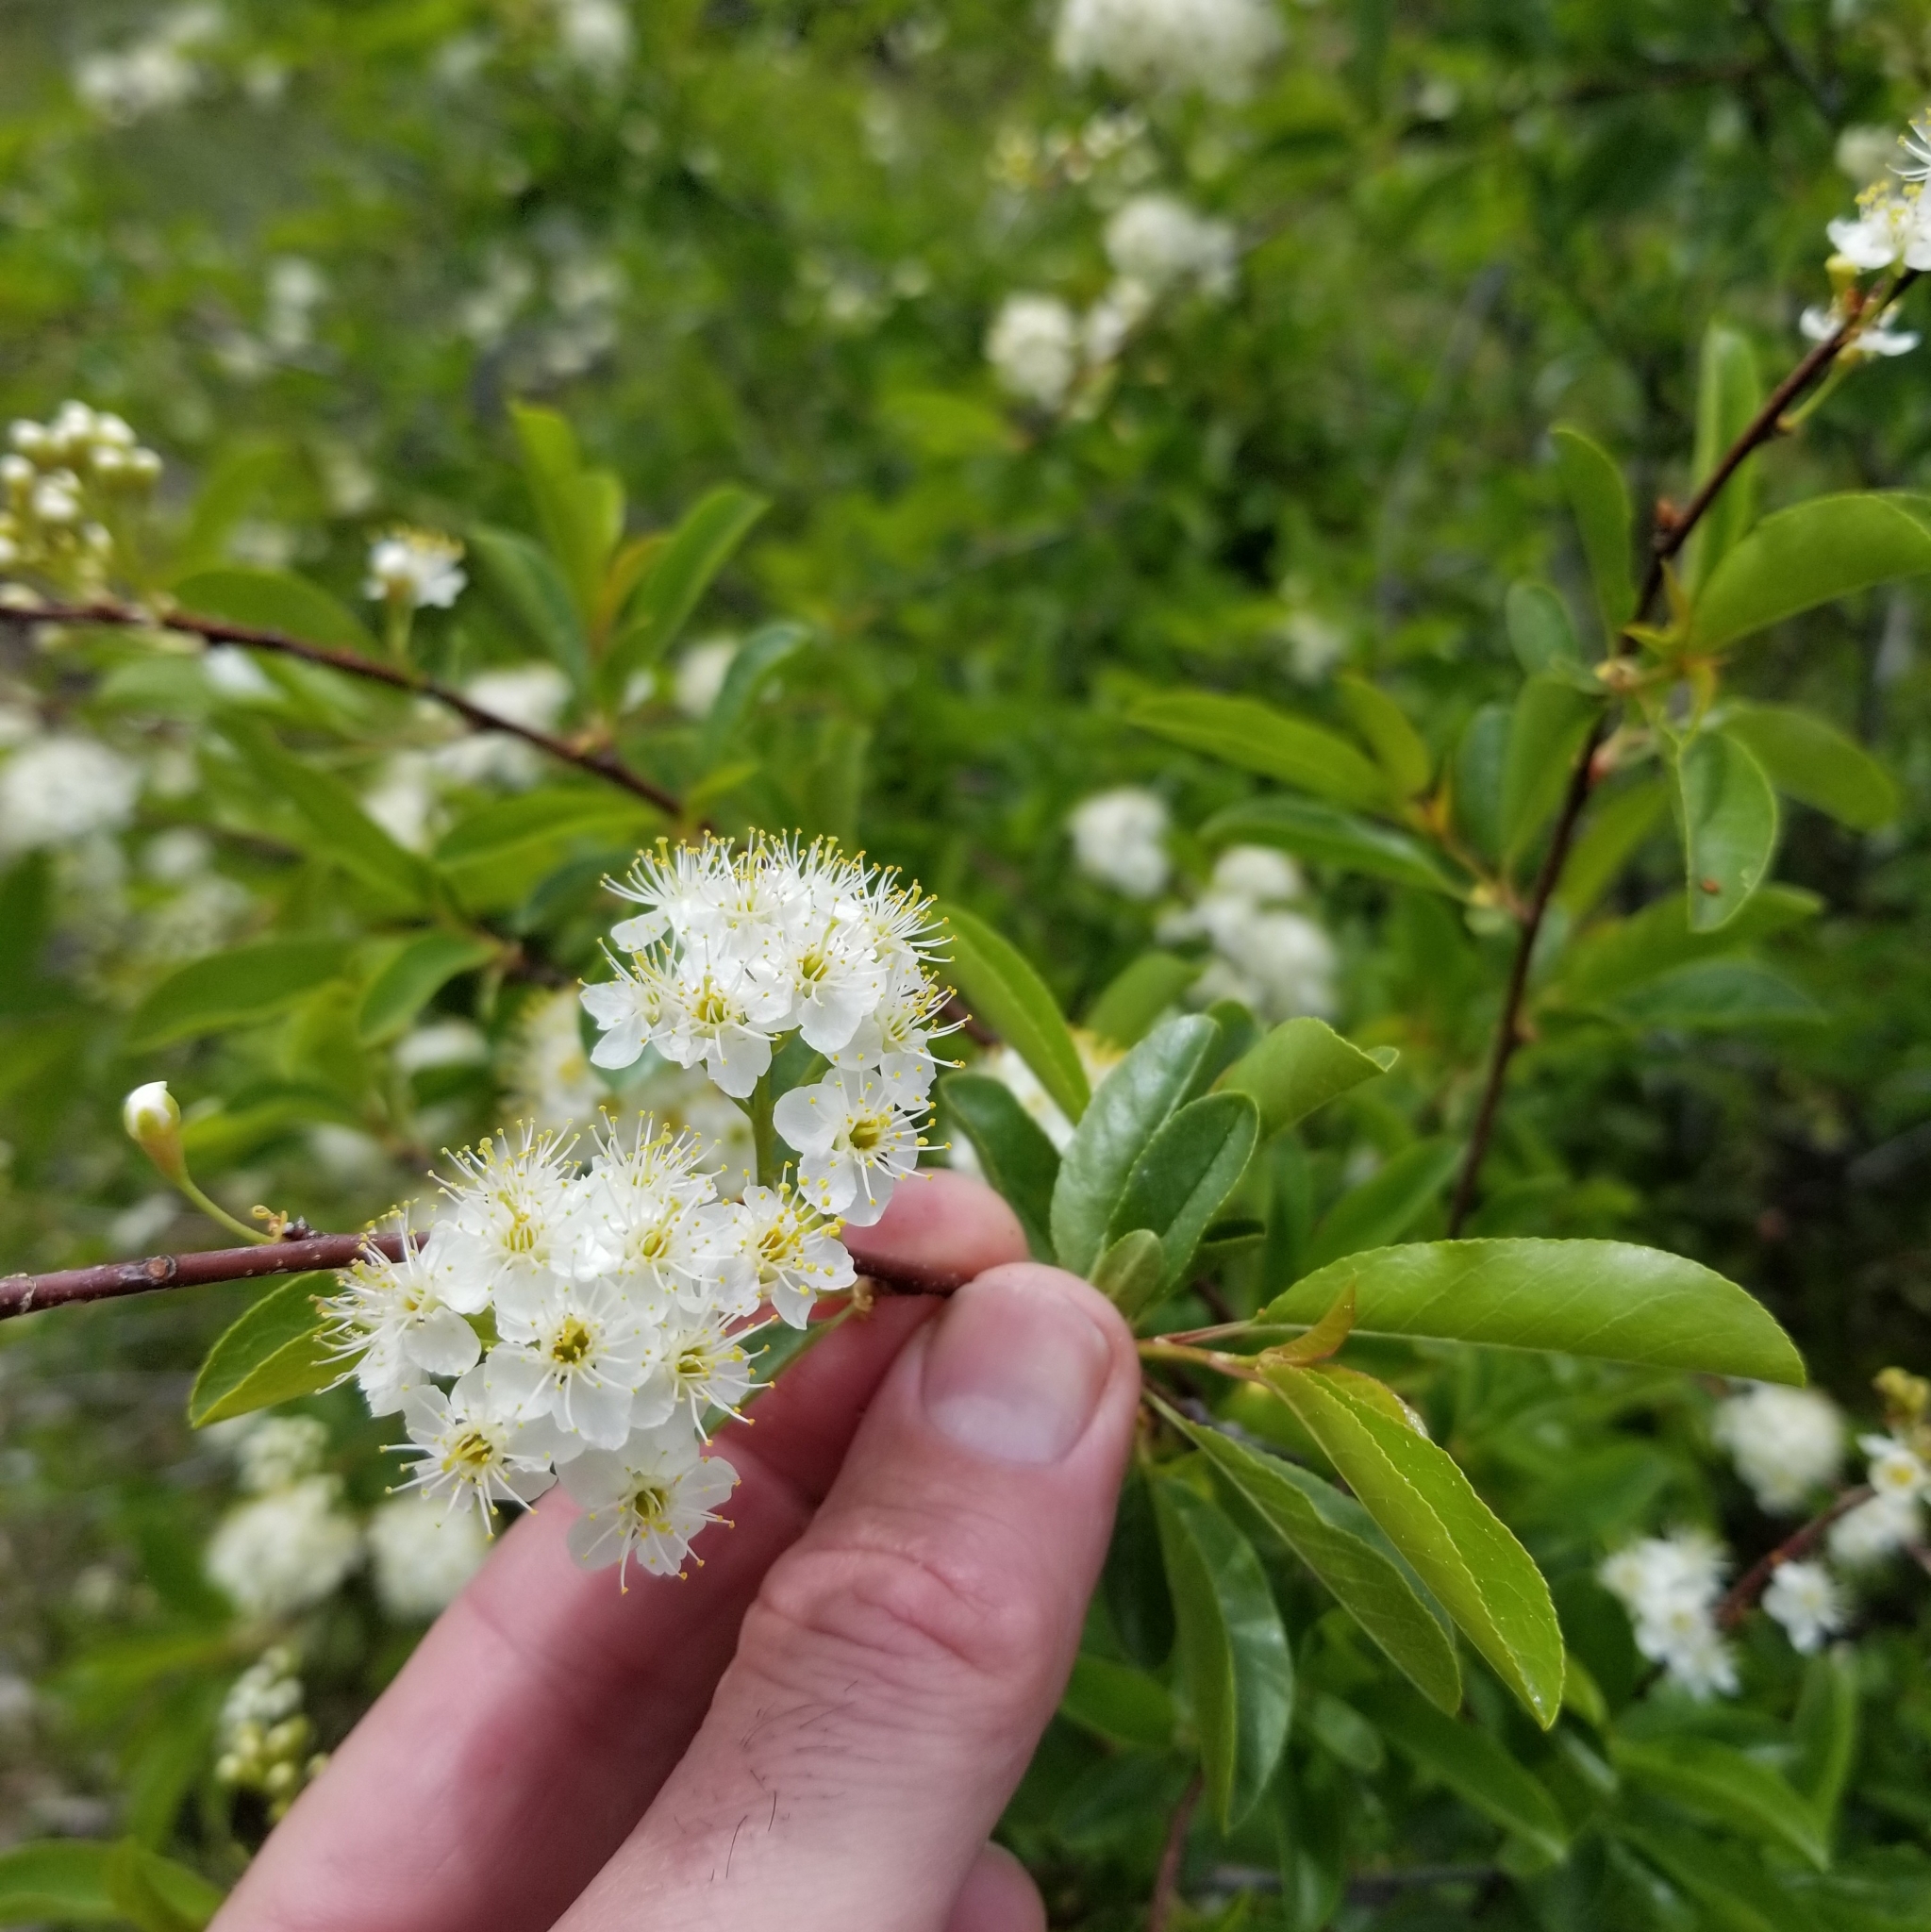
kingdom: Plantae
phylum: Tracheophyta
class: Magnoliopsida
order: Rosales
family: Rosaceae
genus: Prunus
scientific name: Prunus emarginata
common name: Bitter cherry
